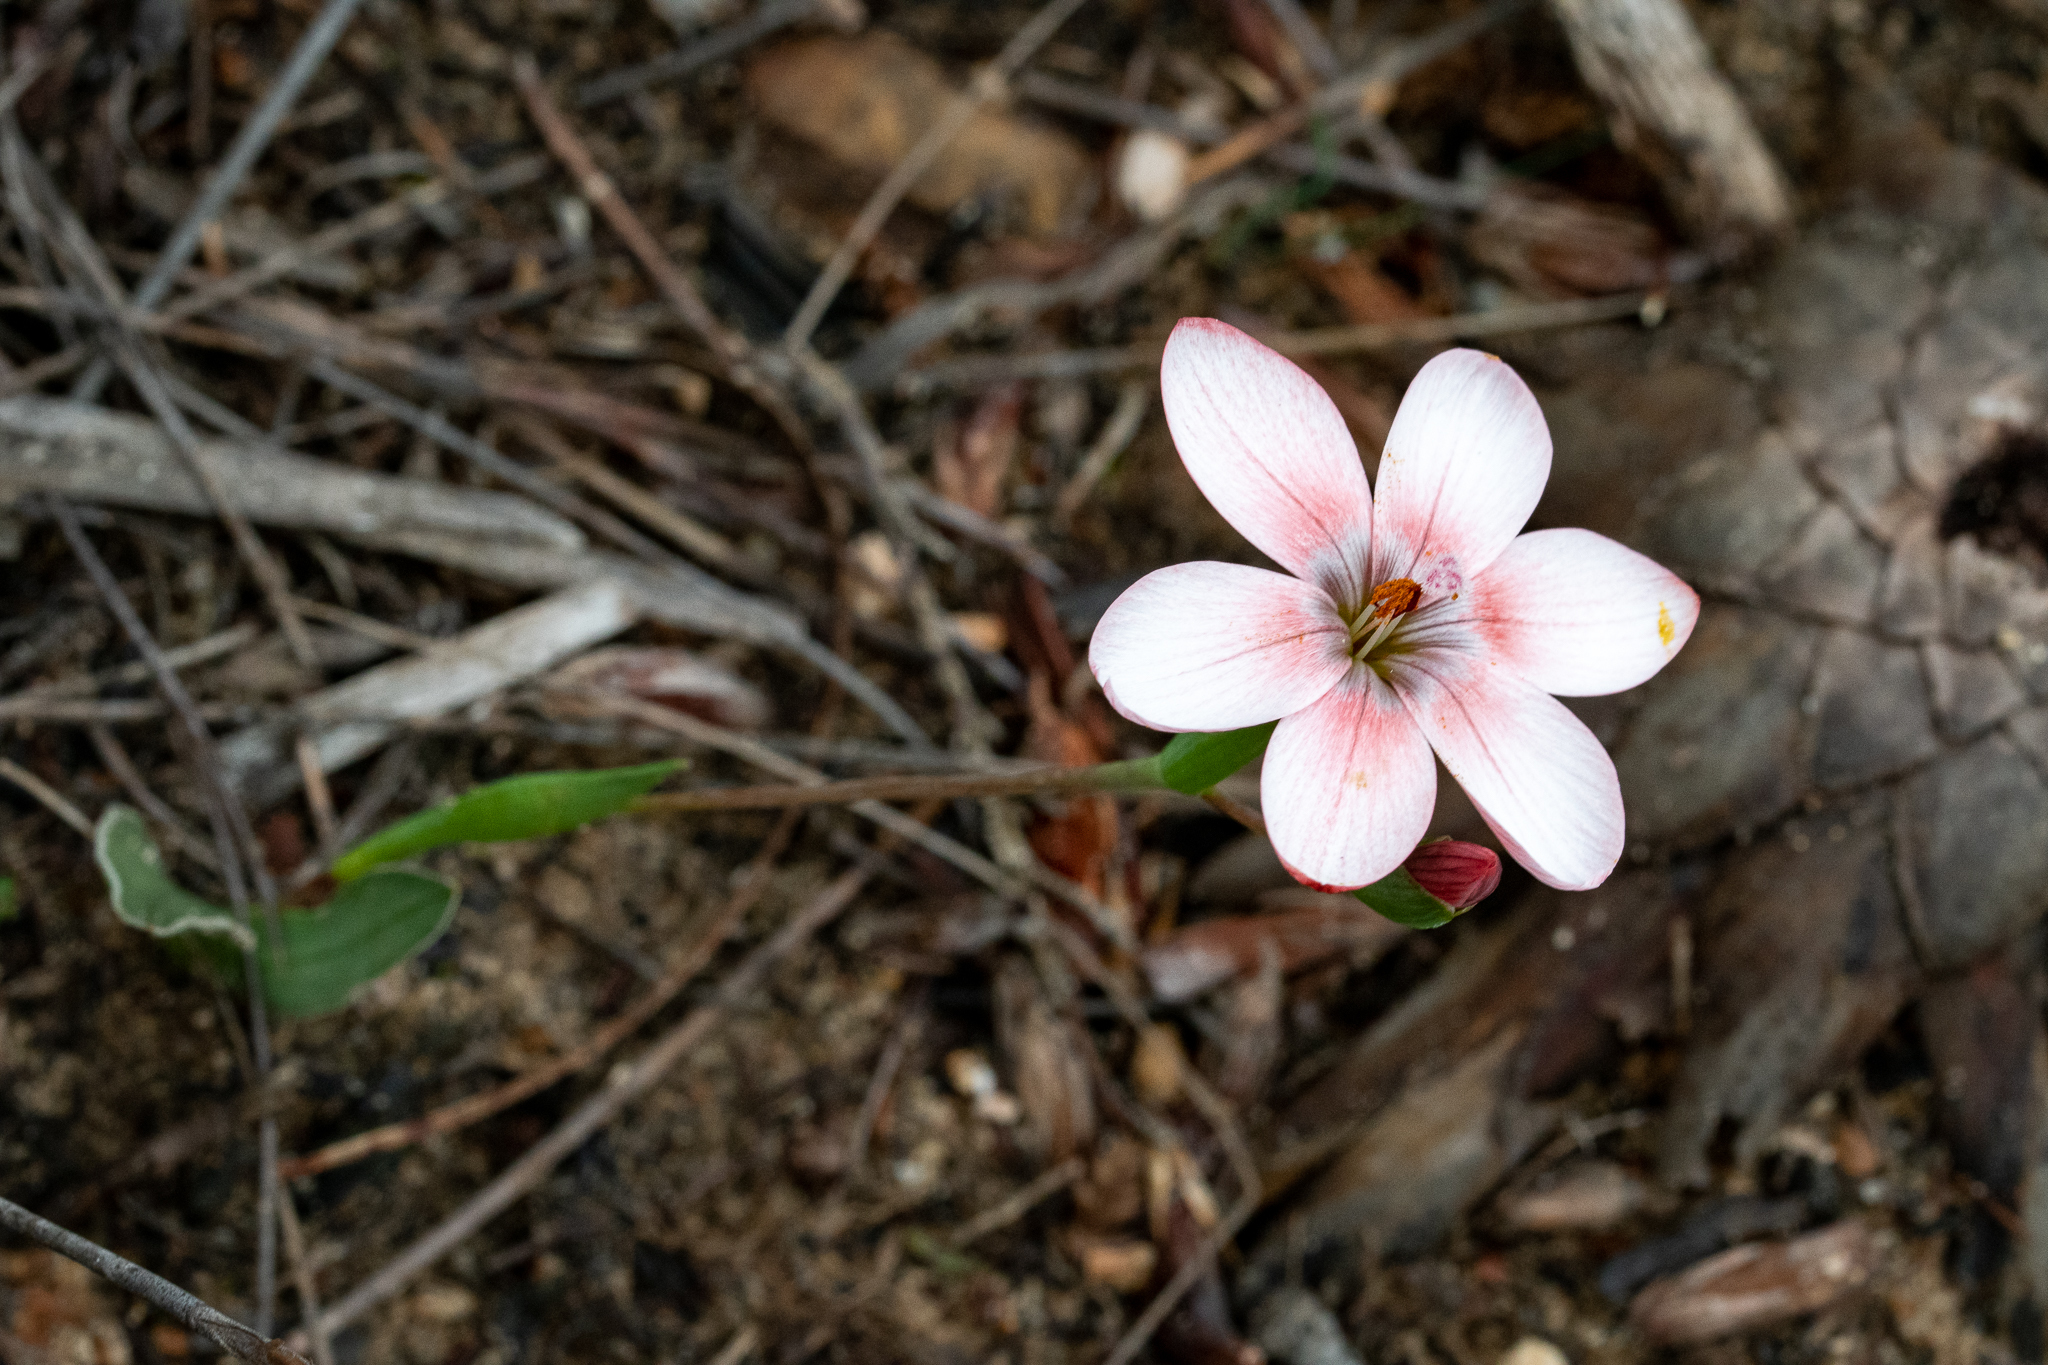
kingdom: Plantae
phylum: Tracheophyta
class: Liliopsida
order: Asparagales
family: Iridaceae
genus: Geissorhiza
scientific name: Geissorhiza ovata
